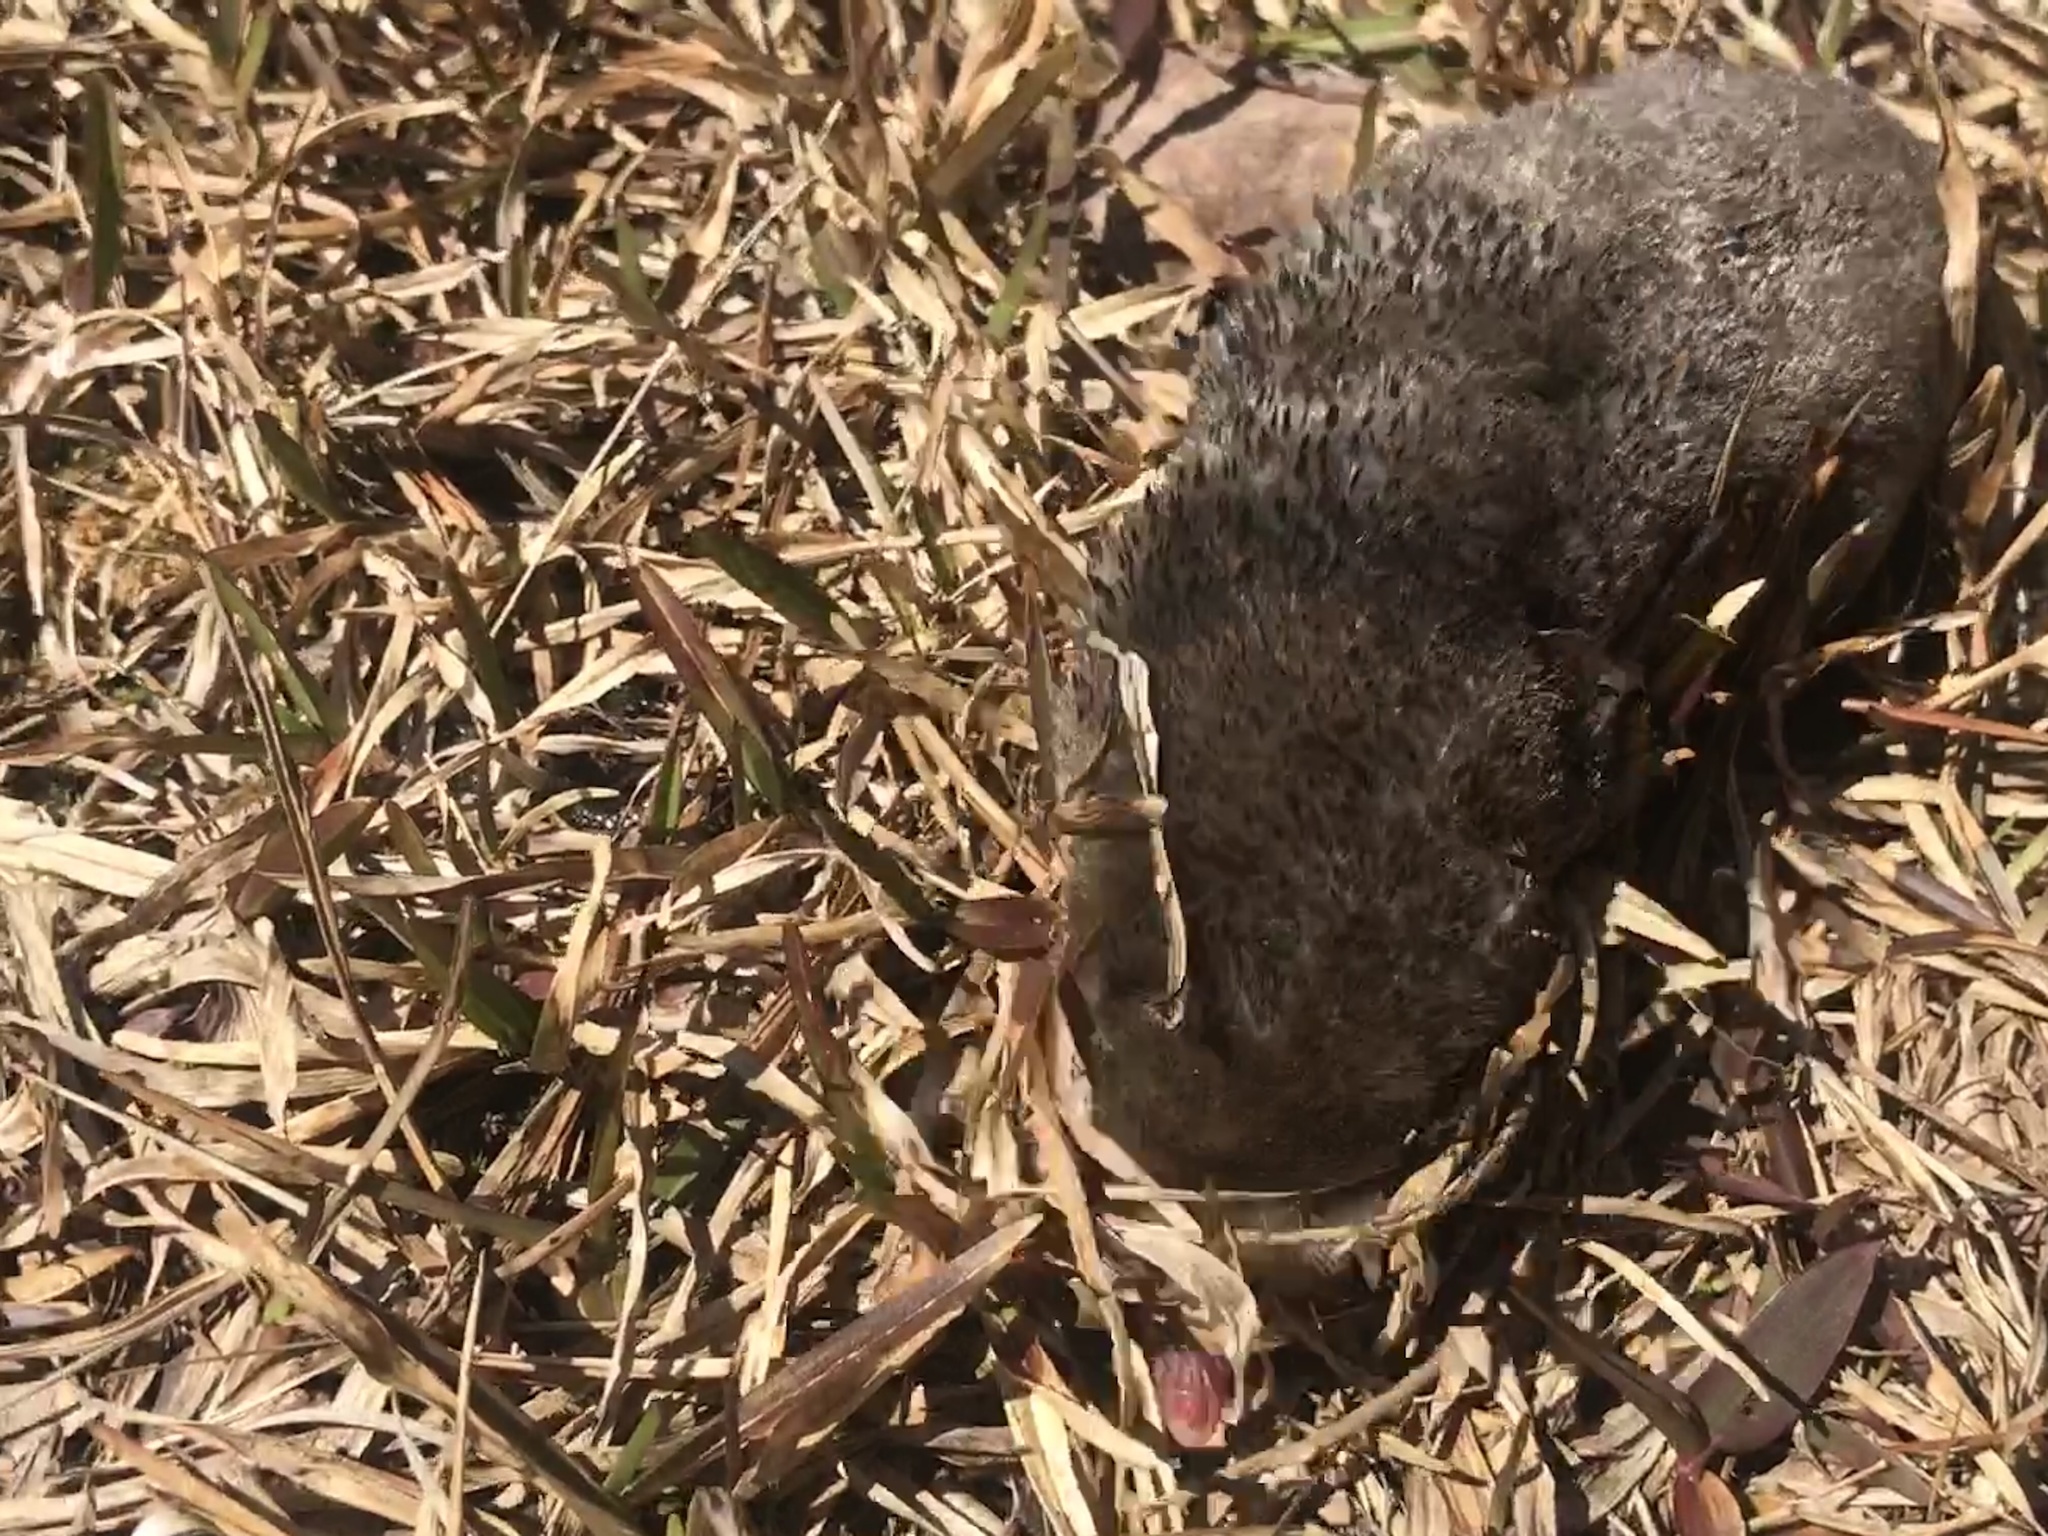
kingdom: Animalia
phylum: Chordata
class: Mammalia
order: Soricomorpha
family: Talpidae
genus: Scalopus
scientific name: Scalopus aquaticus
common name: Eastern mole
